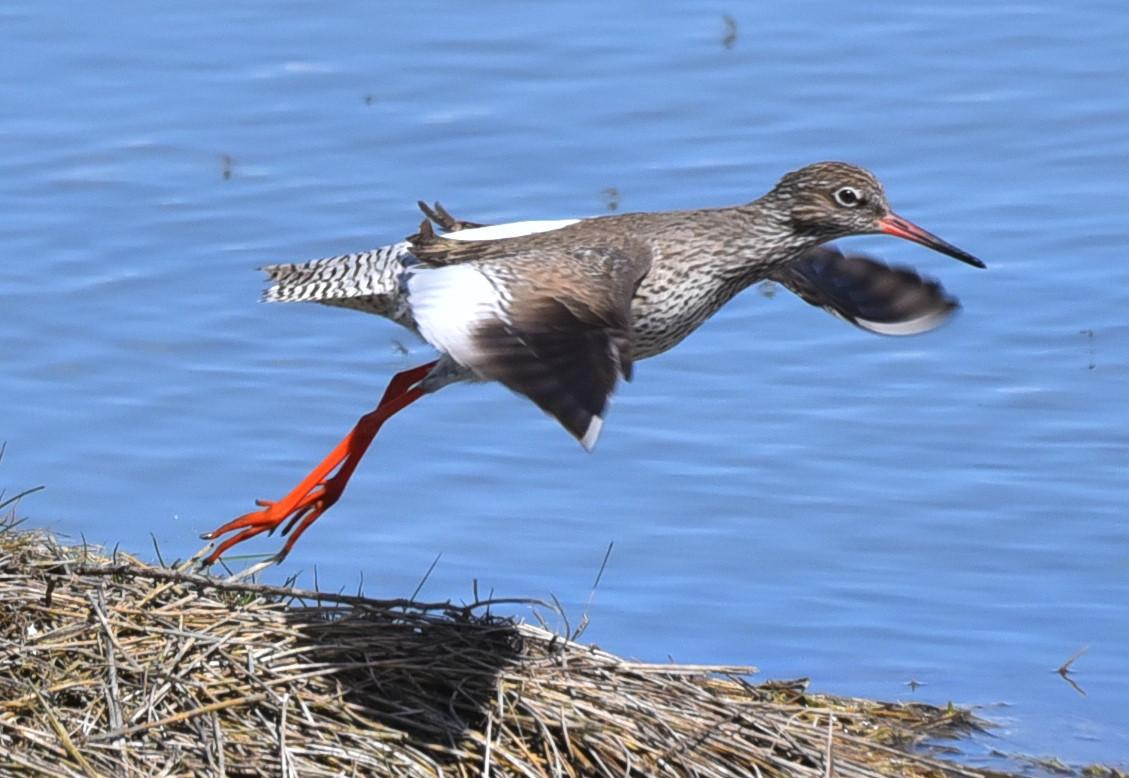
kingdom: Animalia
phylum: Chordata
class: Aves
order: Charadriiformes
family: Scolopacidae
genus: Tringa
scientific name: Tringa totanus
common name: Common redshank
